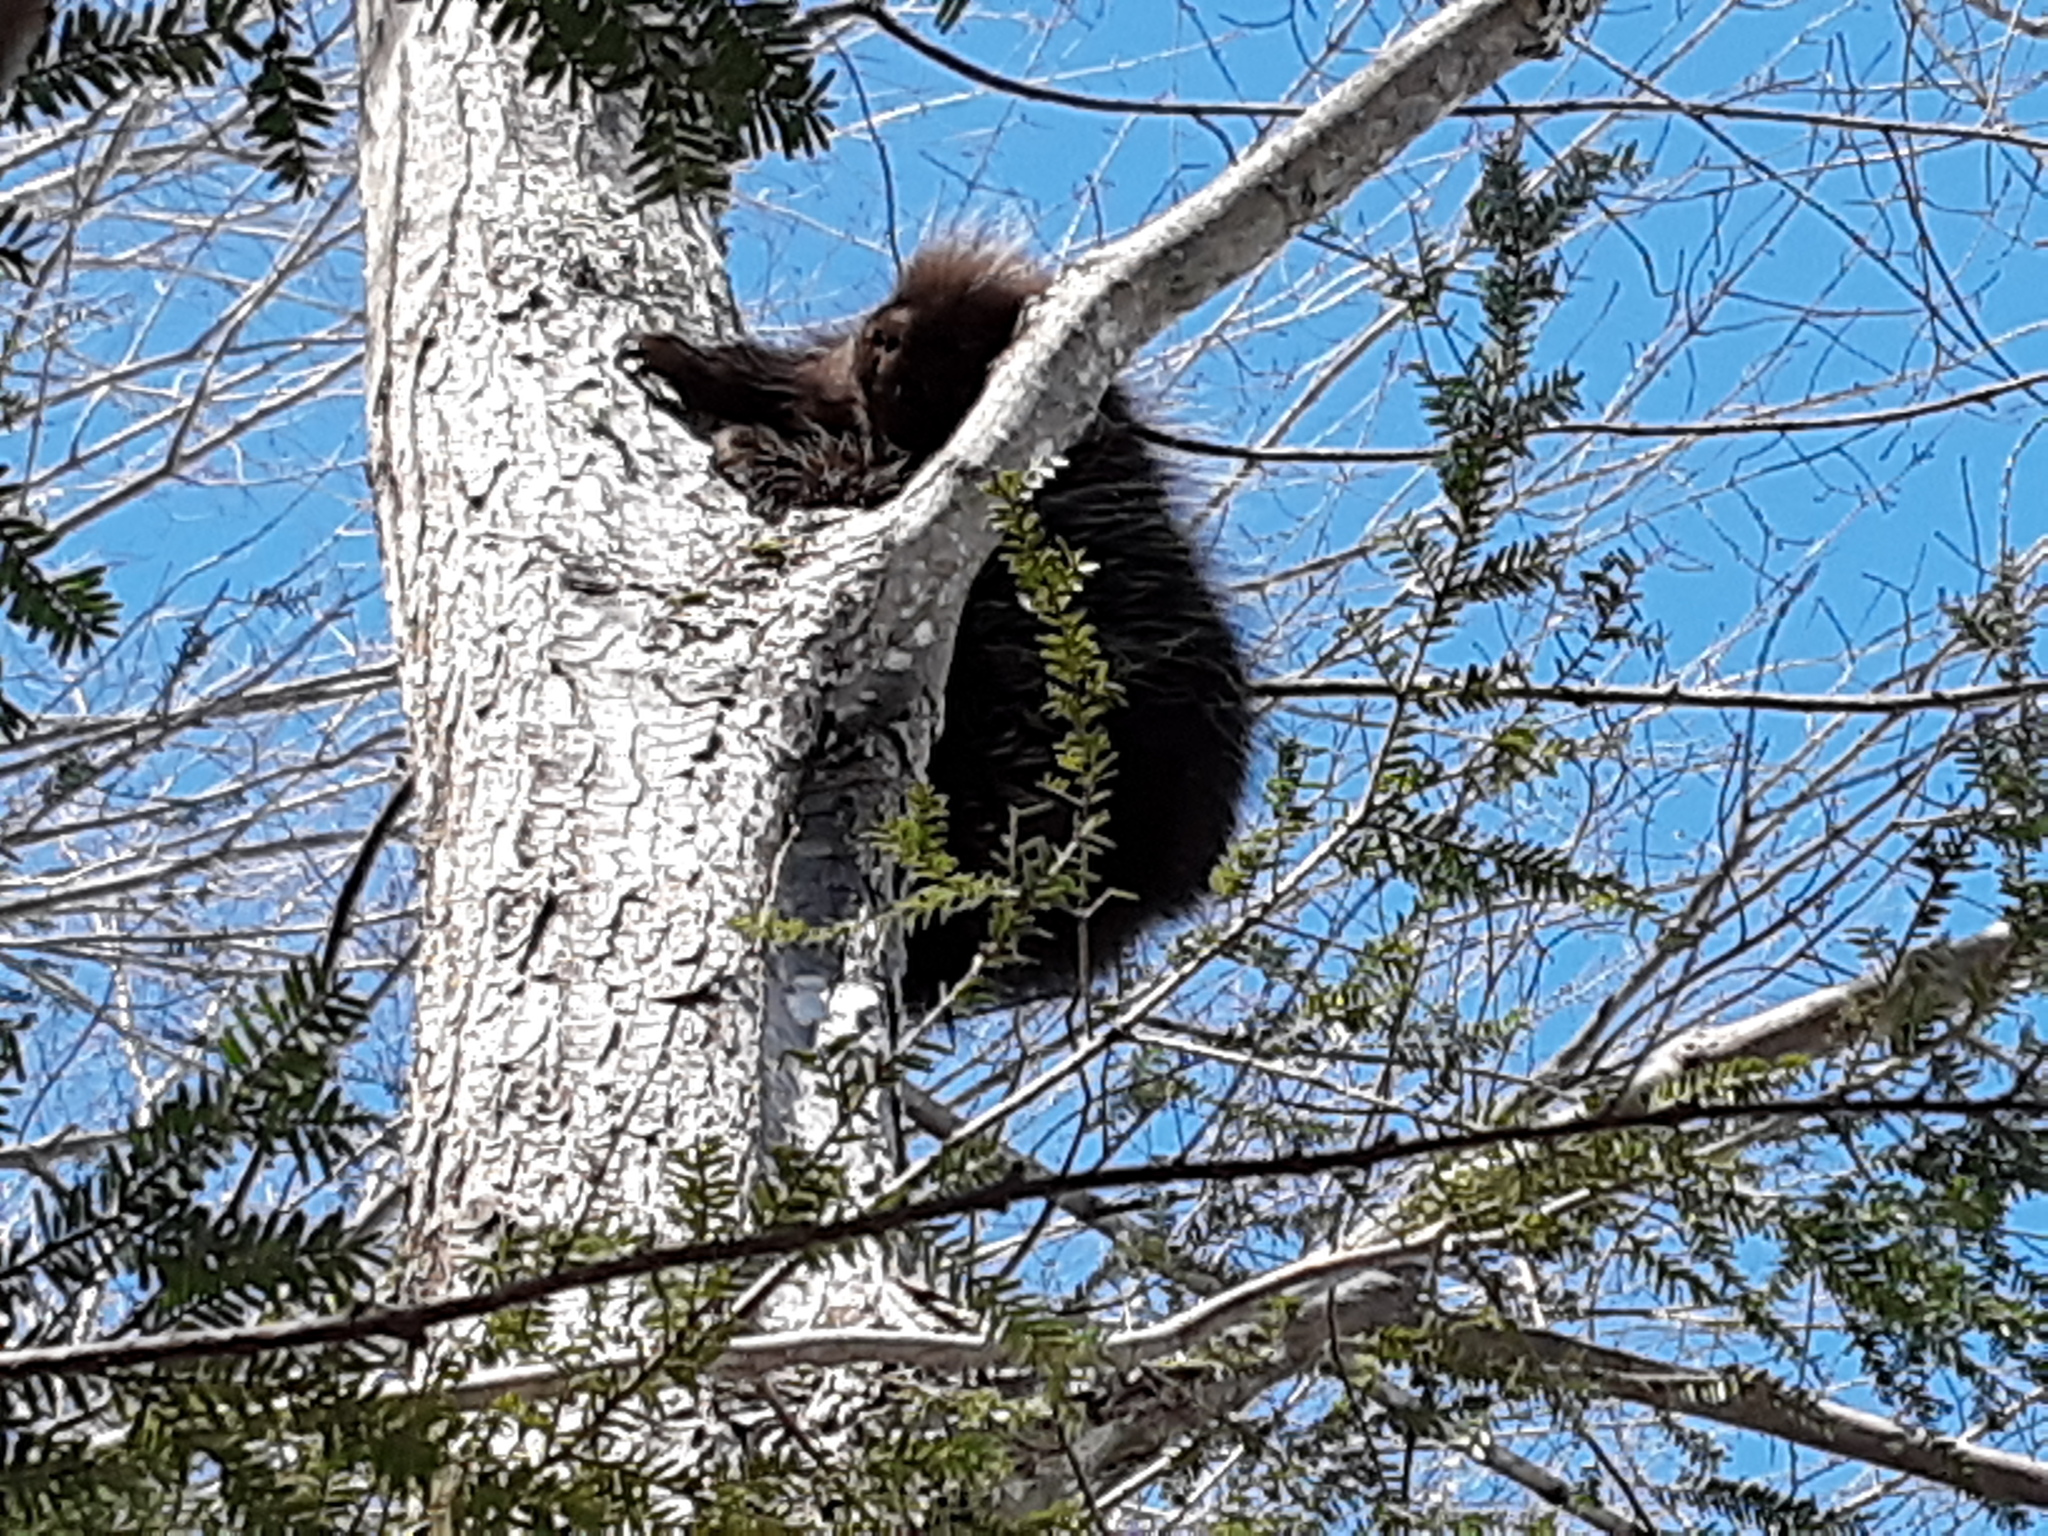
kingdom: Animalia
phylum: Chordata
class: Mammalia
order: Rodentia
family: Erethizontidae
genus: Erethizon
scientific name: Erethizon dorsatus
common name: North american porcupine
